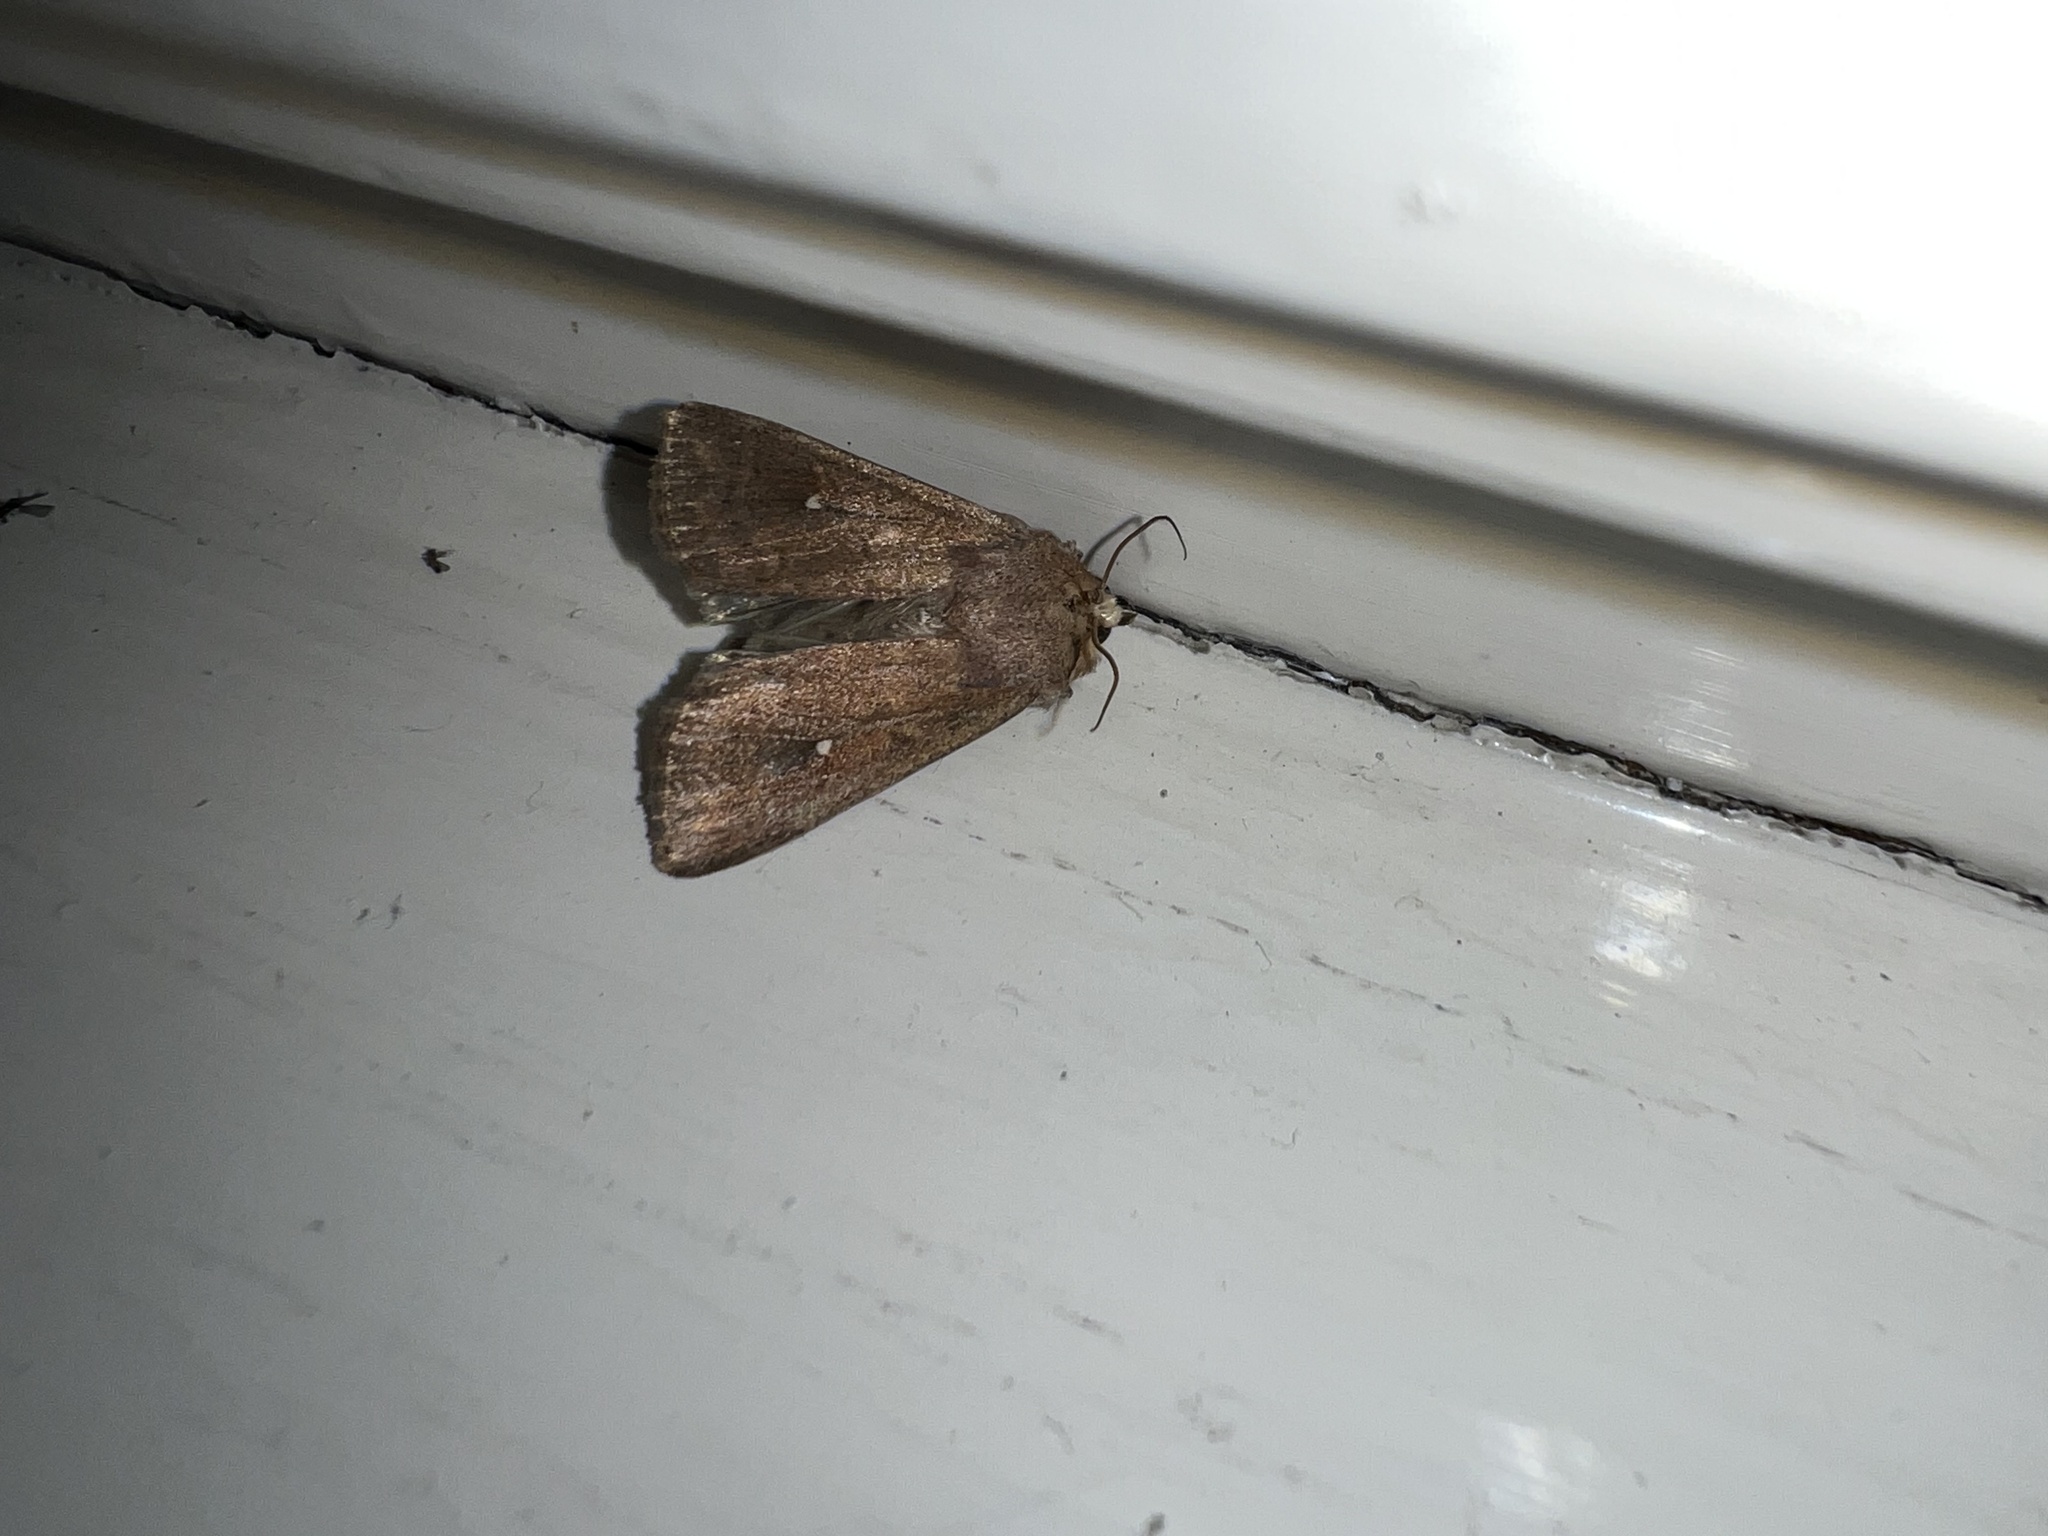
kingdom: Animalia
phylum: Arthropoda
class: Insecta
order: Lepidoptera
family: Noctuidae
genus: Mythimna
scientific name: Mythimna albipuncta
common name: White-point
